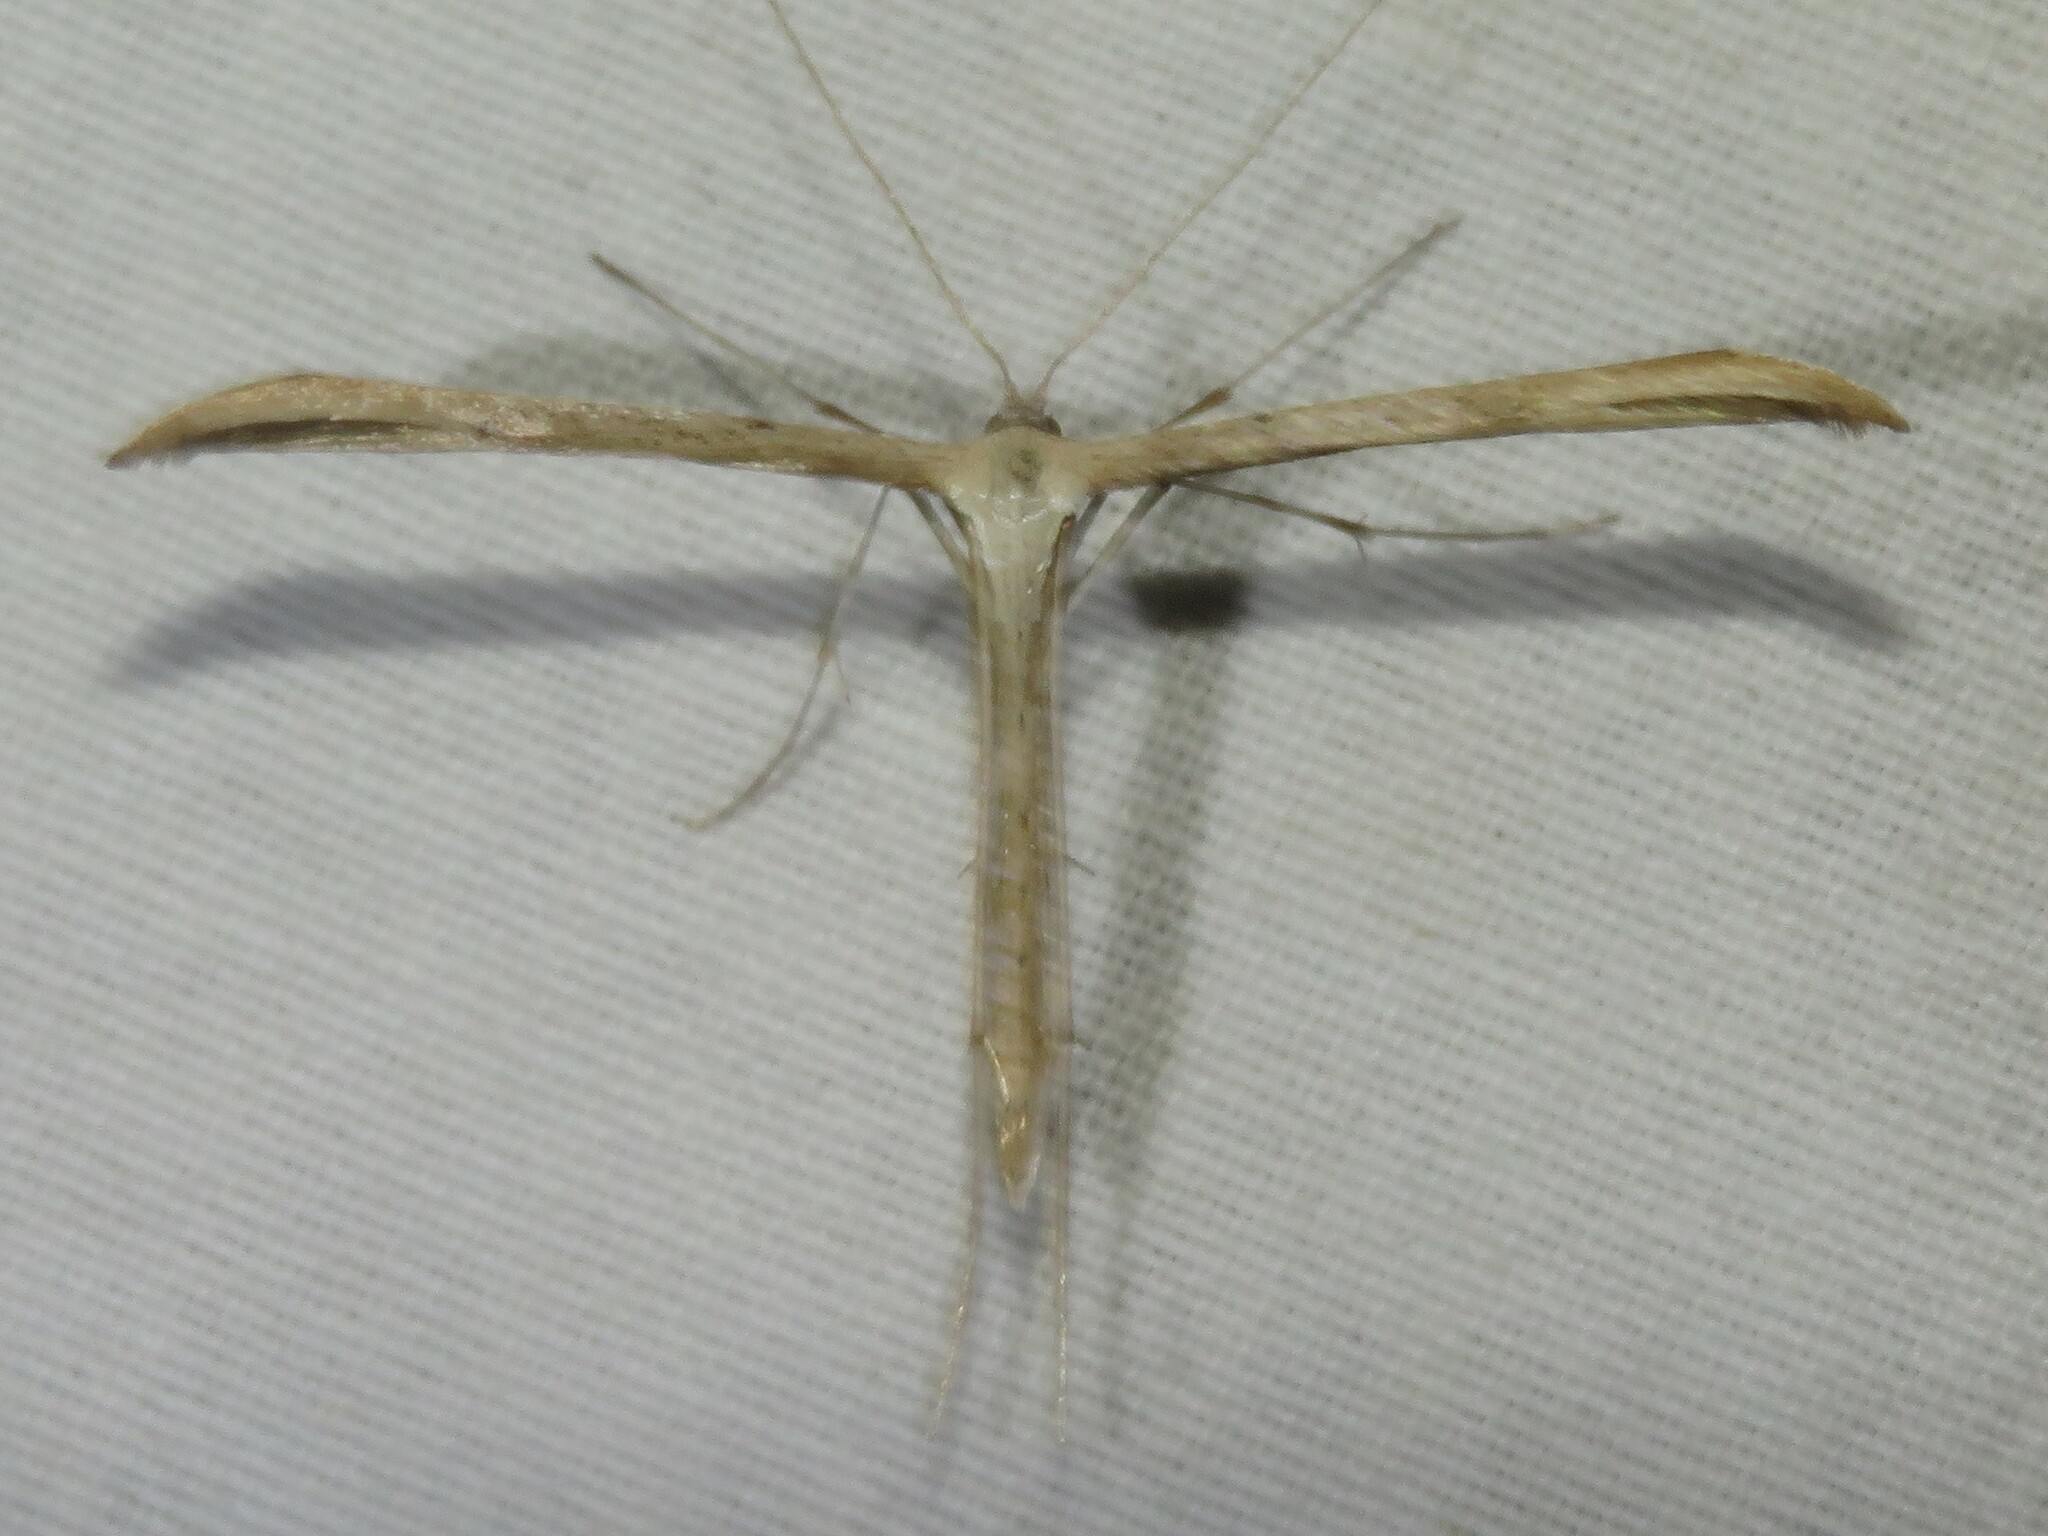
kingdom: Animalia
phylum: Arthropoda
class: Insecta
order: Lepidoptera
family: Pterophoridae
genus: Emmelina
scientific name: Emmelina monodactyla
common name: Common plume
